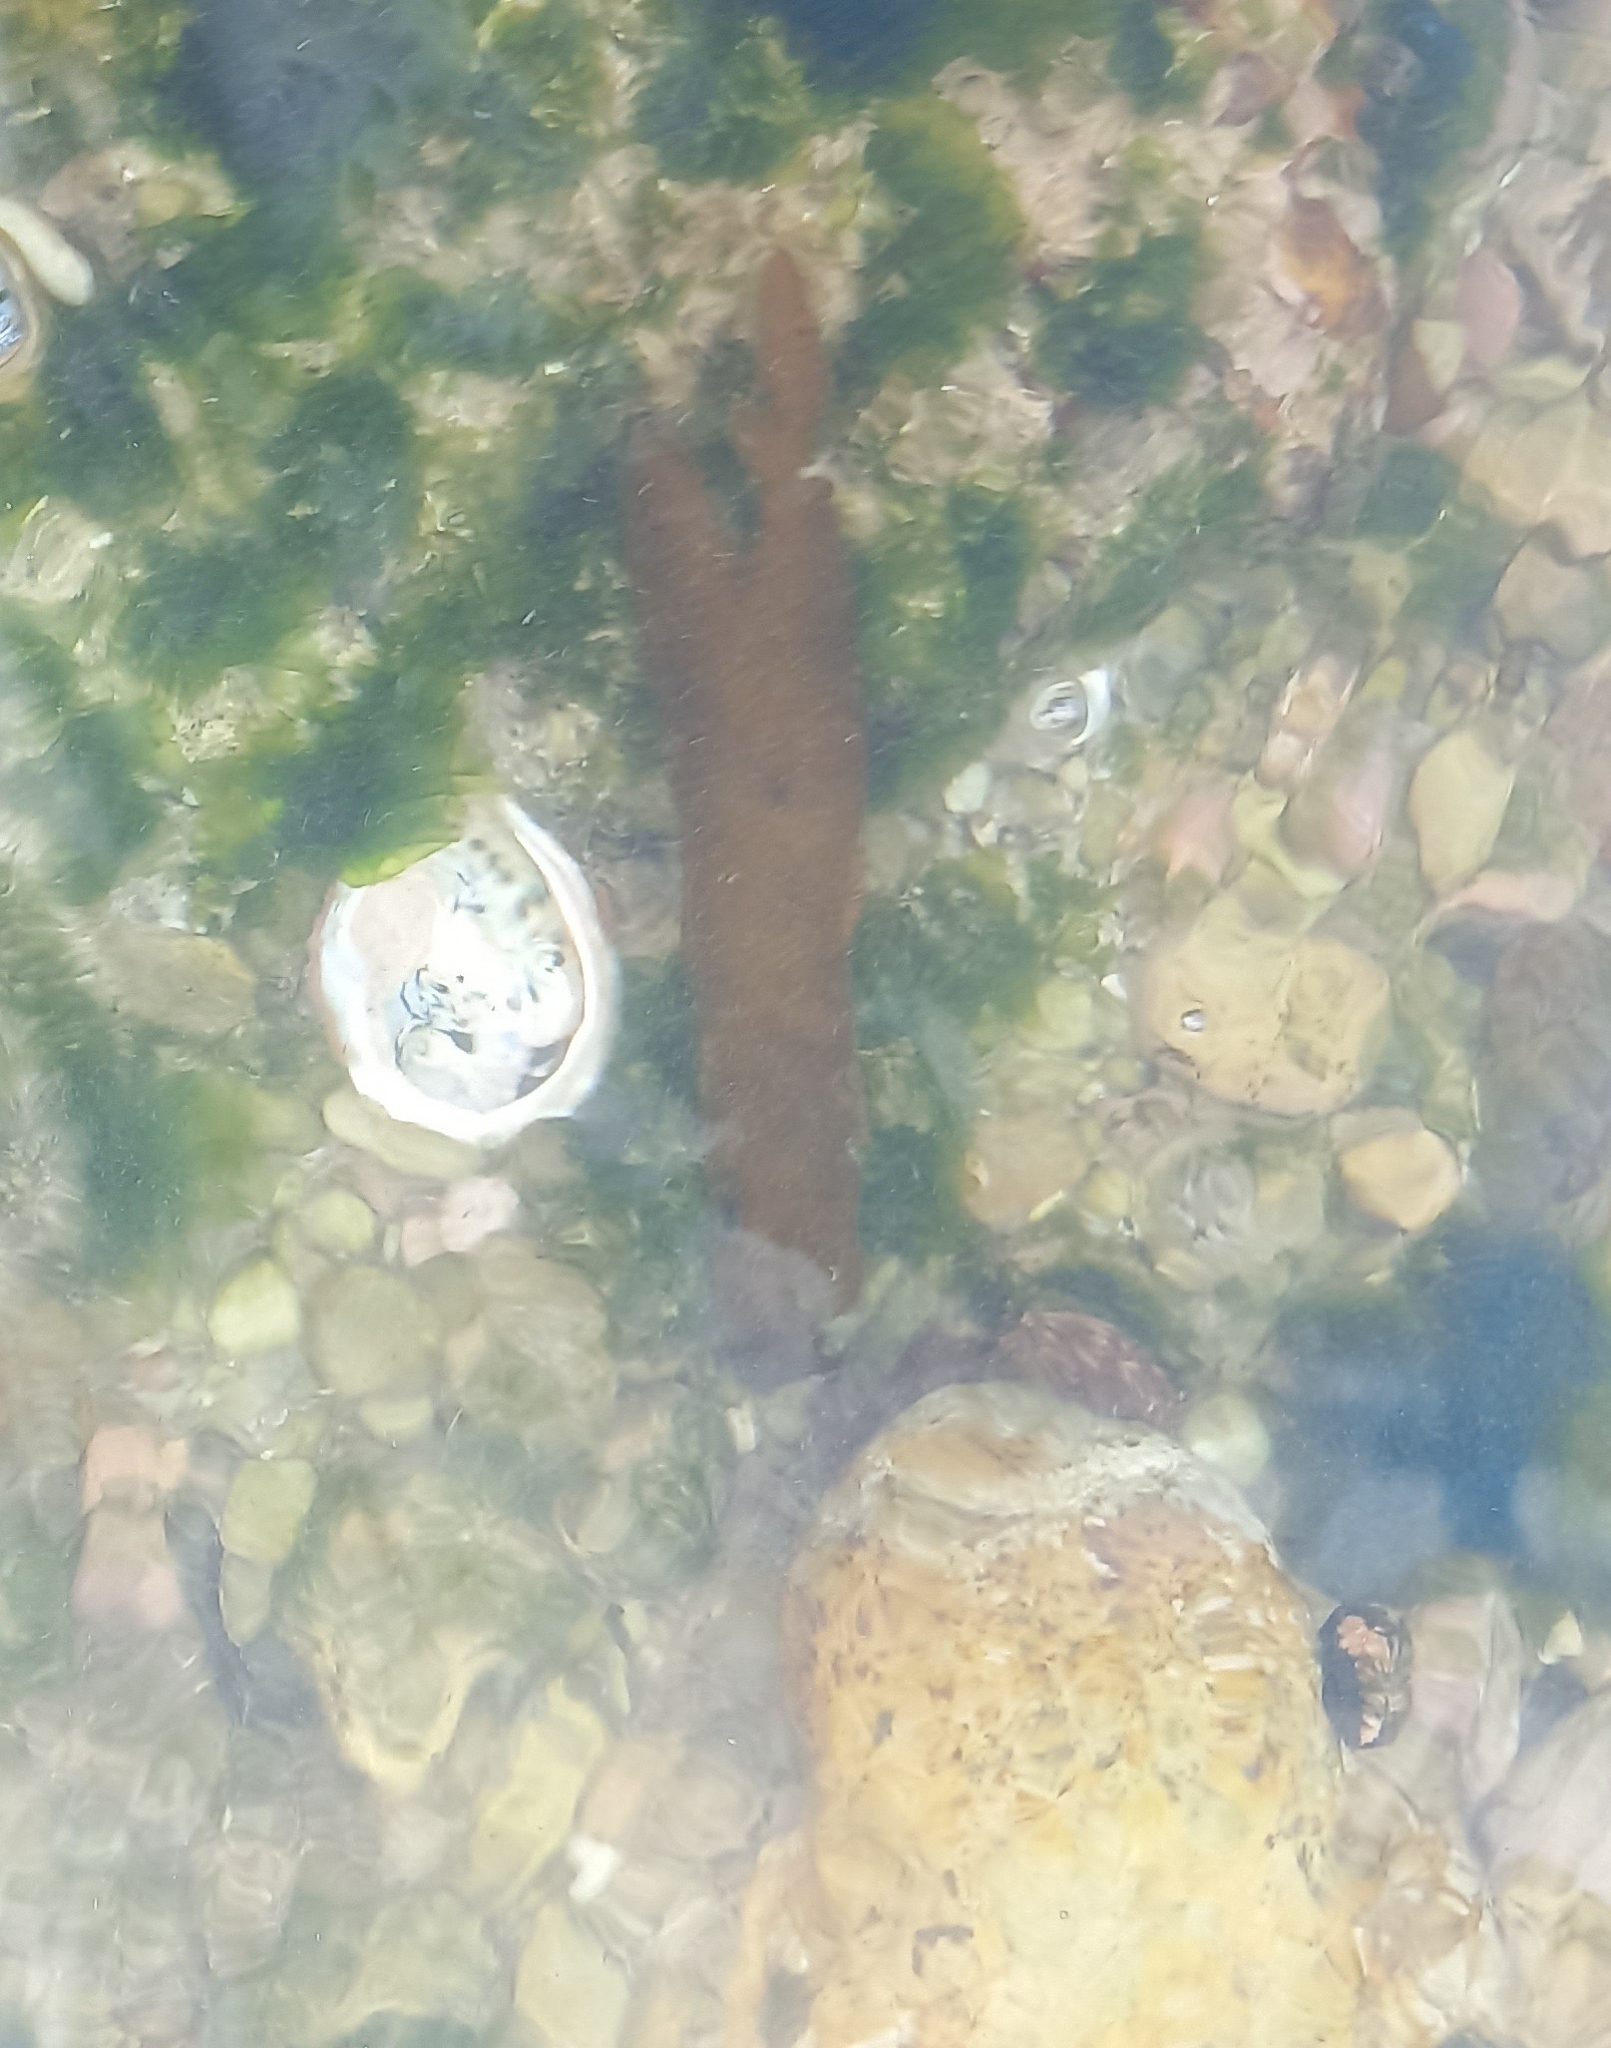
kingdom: Animalia
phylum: Mollusca
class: Gastropoda
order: Lepetellida
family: Haliotidae
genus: Haliotis
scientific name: Haliotis midae
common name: Perlemoen
